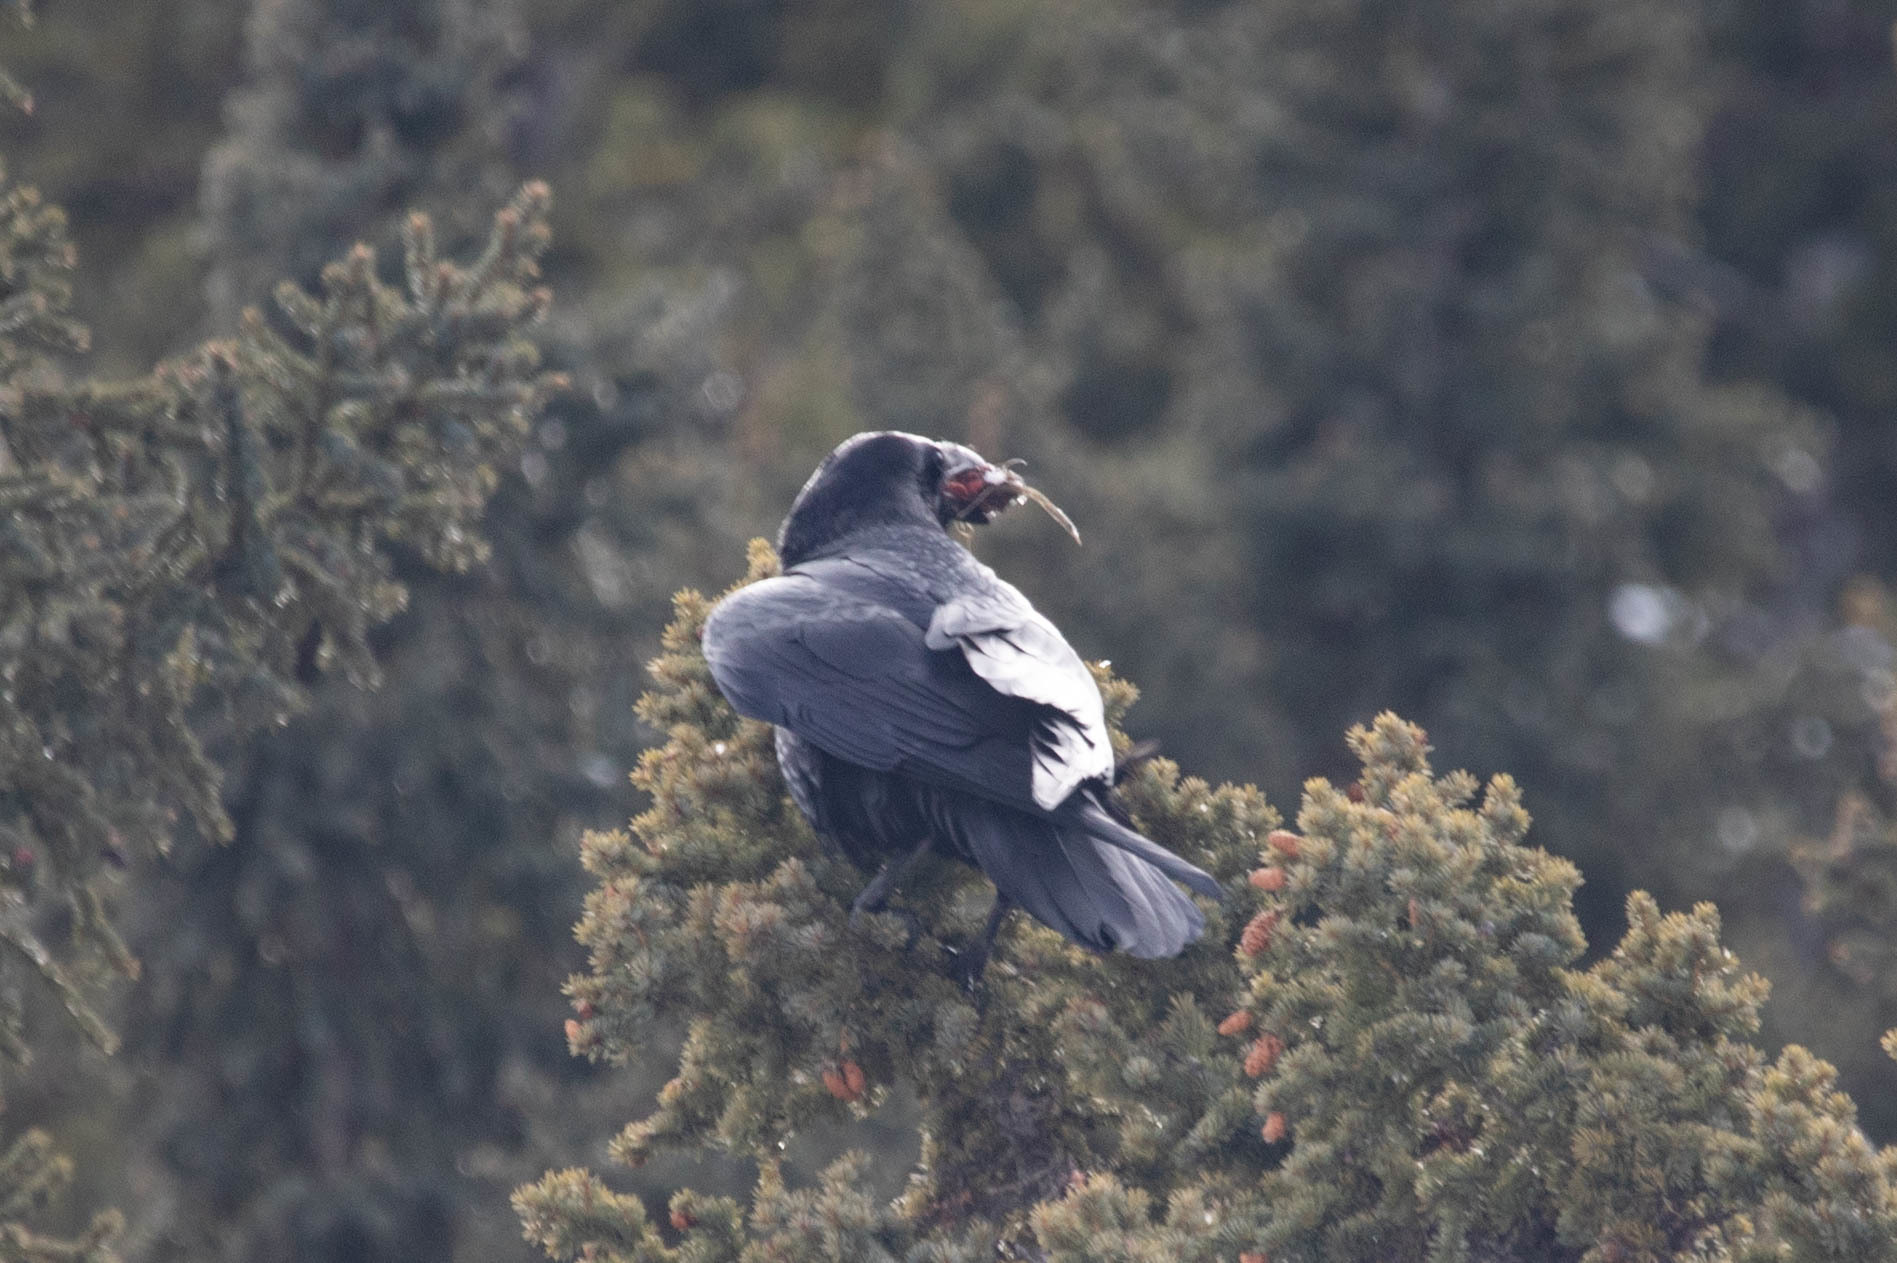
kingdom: Animalia
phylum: Chordata
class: Aves
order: Passeriformes
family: Corvidae
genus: Corvus
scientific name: Corvus corax
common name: Common raven
